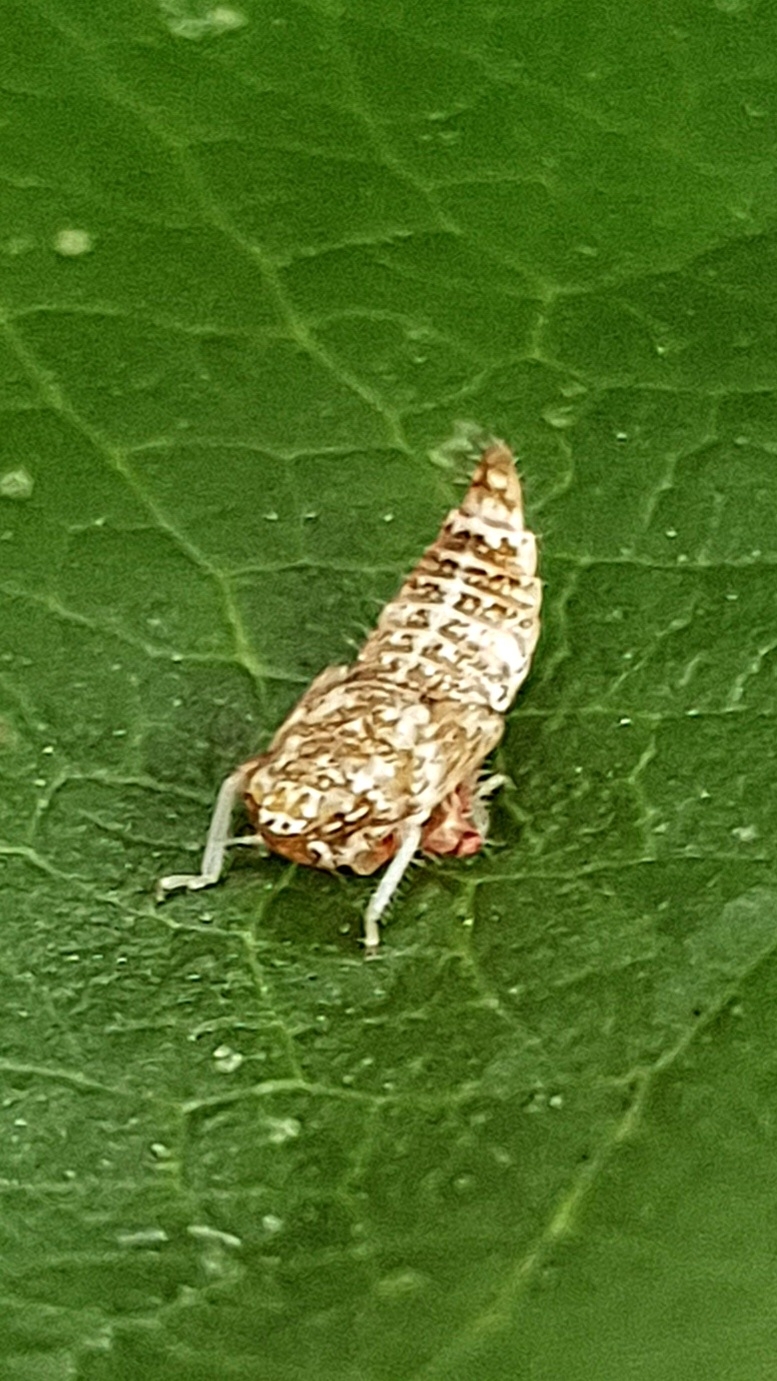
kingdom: Animalia
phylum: Arthropoda
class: Insecta
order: Hemiptera
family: Cicadellidae
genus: Orientus
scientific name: Orientus ishidae
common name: Japanese leafhopper
